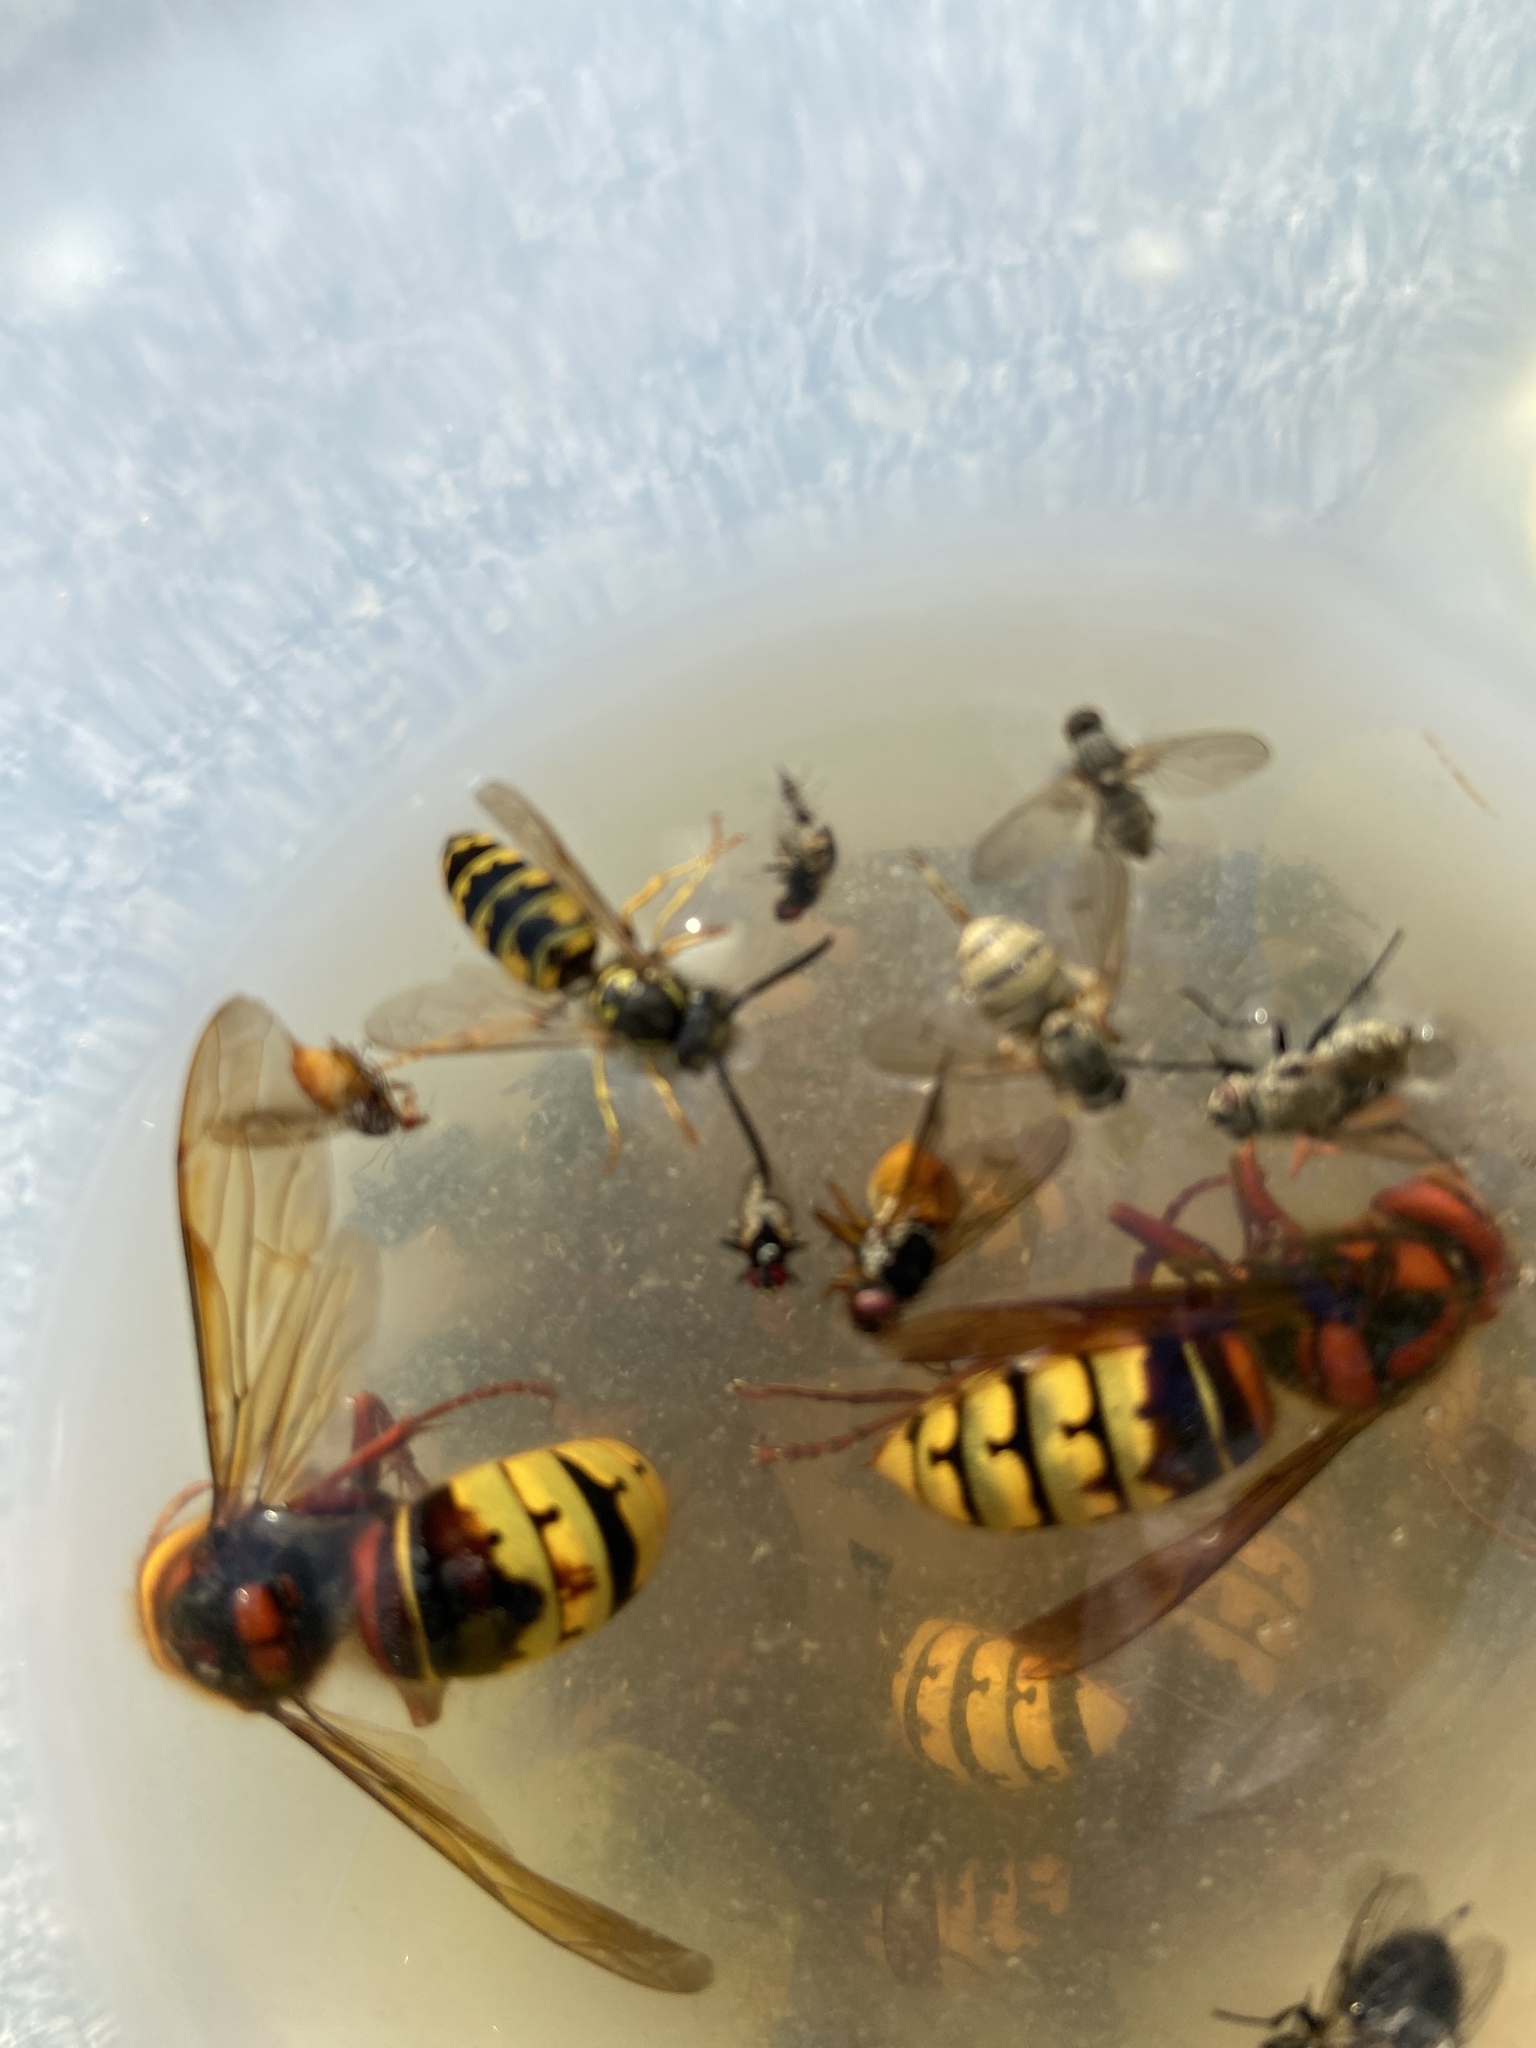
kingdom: Animalia
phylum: Arthropoda
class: Insecta
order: Hymenoptera
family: Vespidae
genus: Vespa
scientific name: Vespa crabro
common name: Hornet
